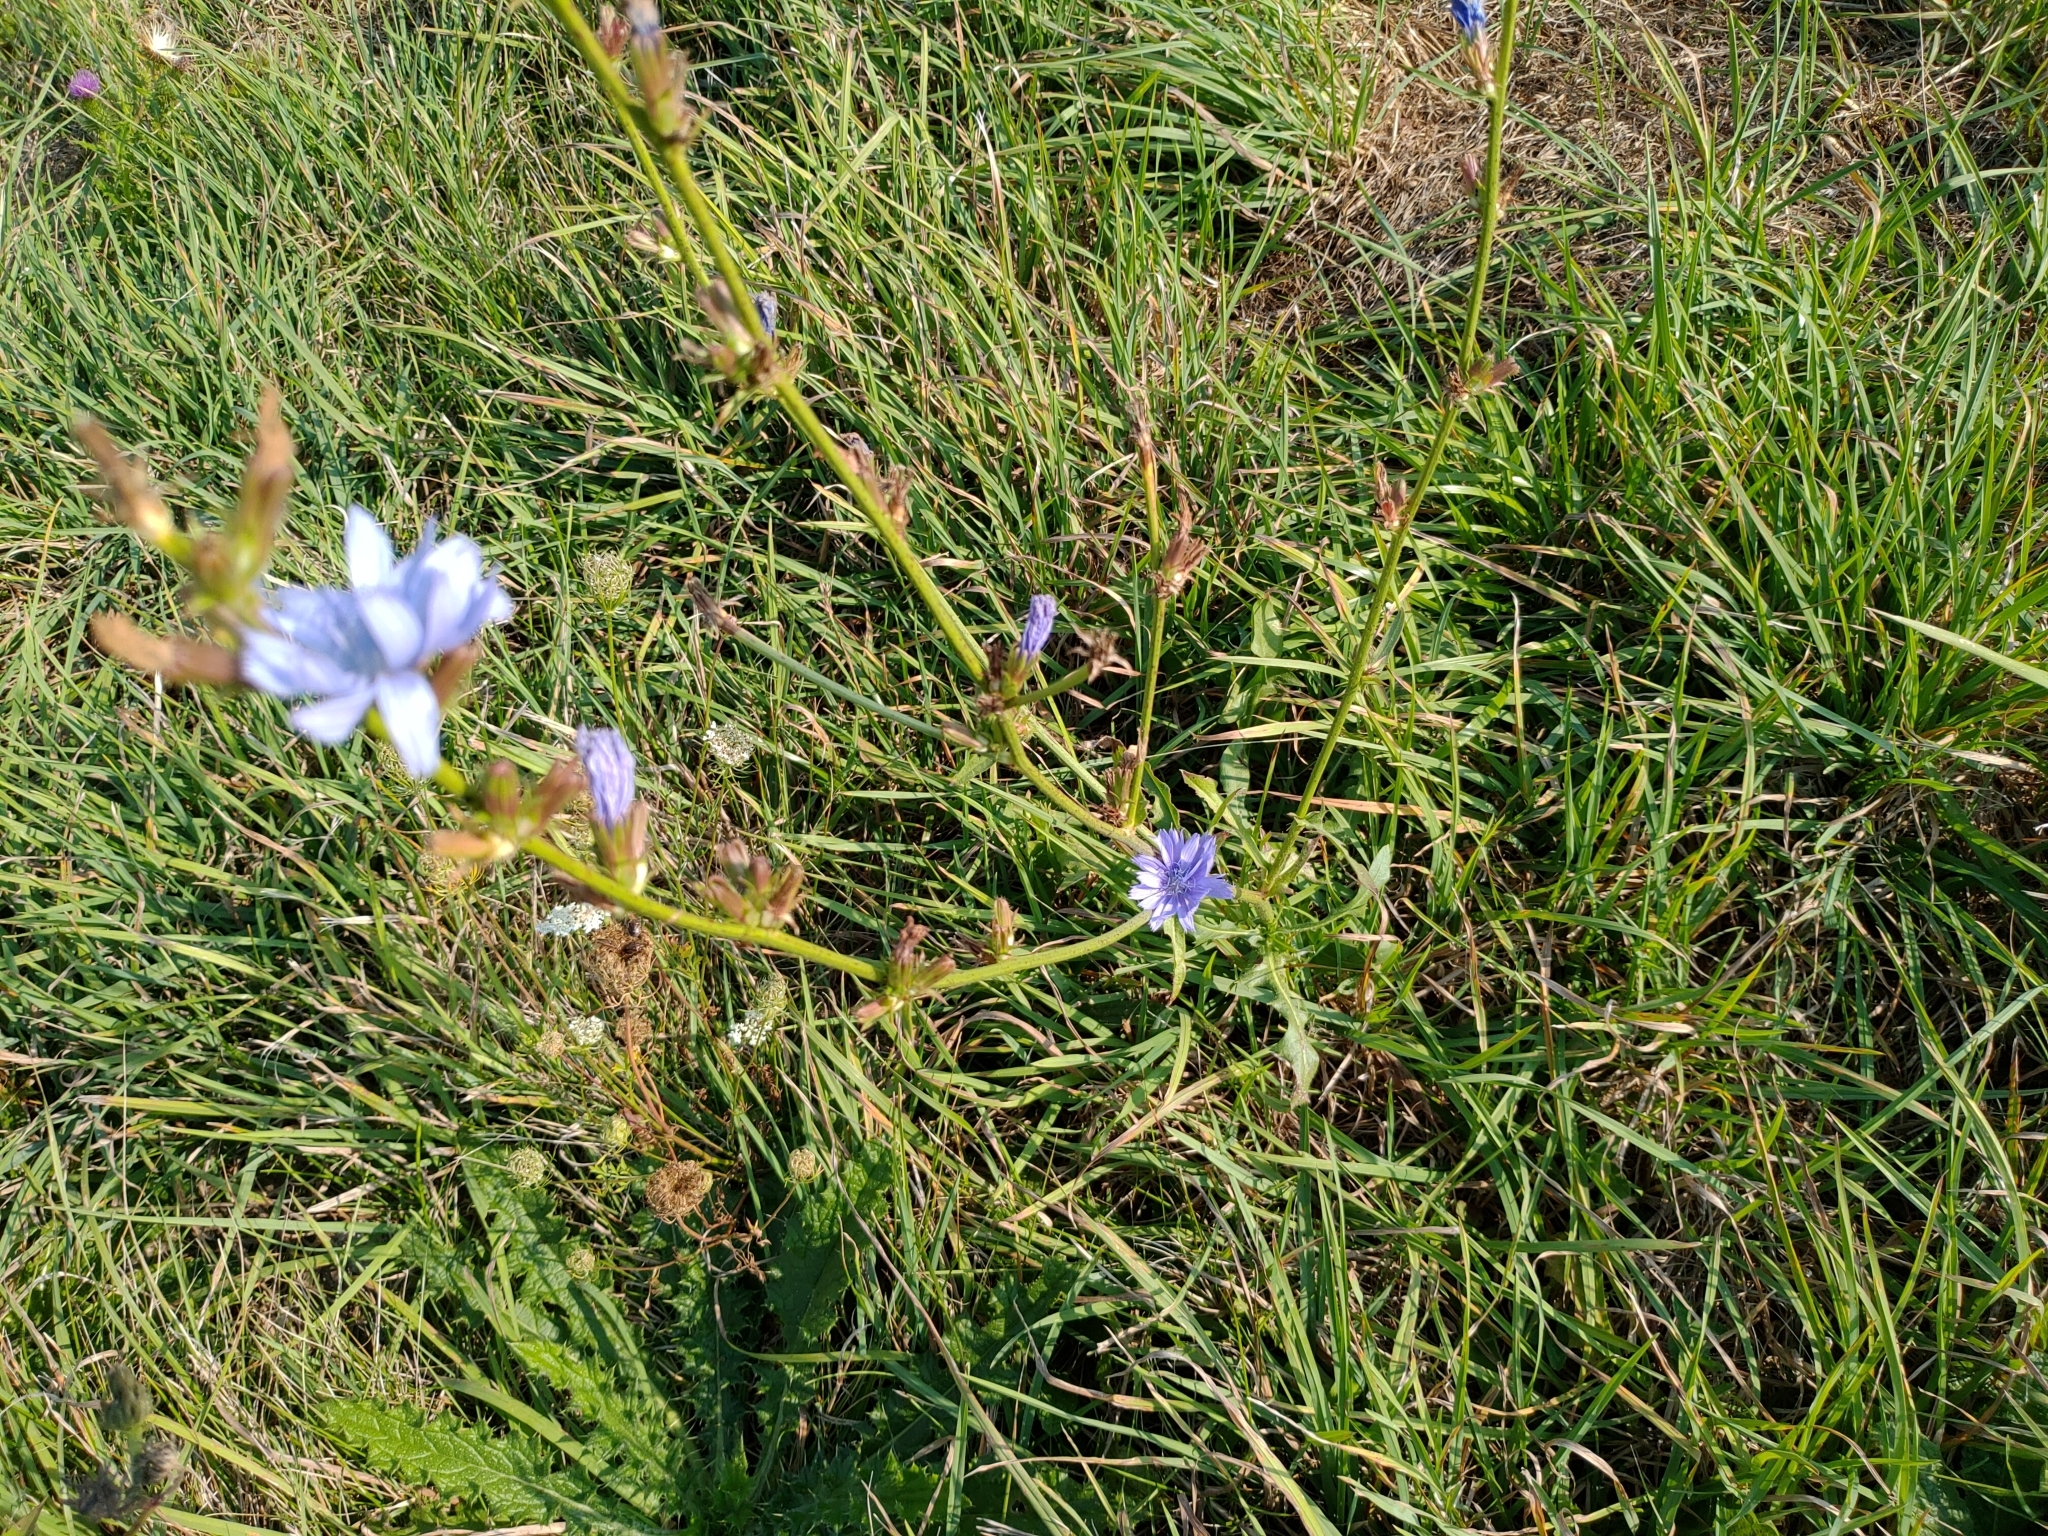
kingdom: Plantae
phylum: Tracheophyta
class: Magnoliopsida
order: Asterales
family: Asteraceae
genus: Cichorium
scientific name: Cichorium intybus
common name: Chicory
